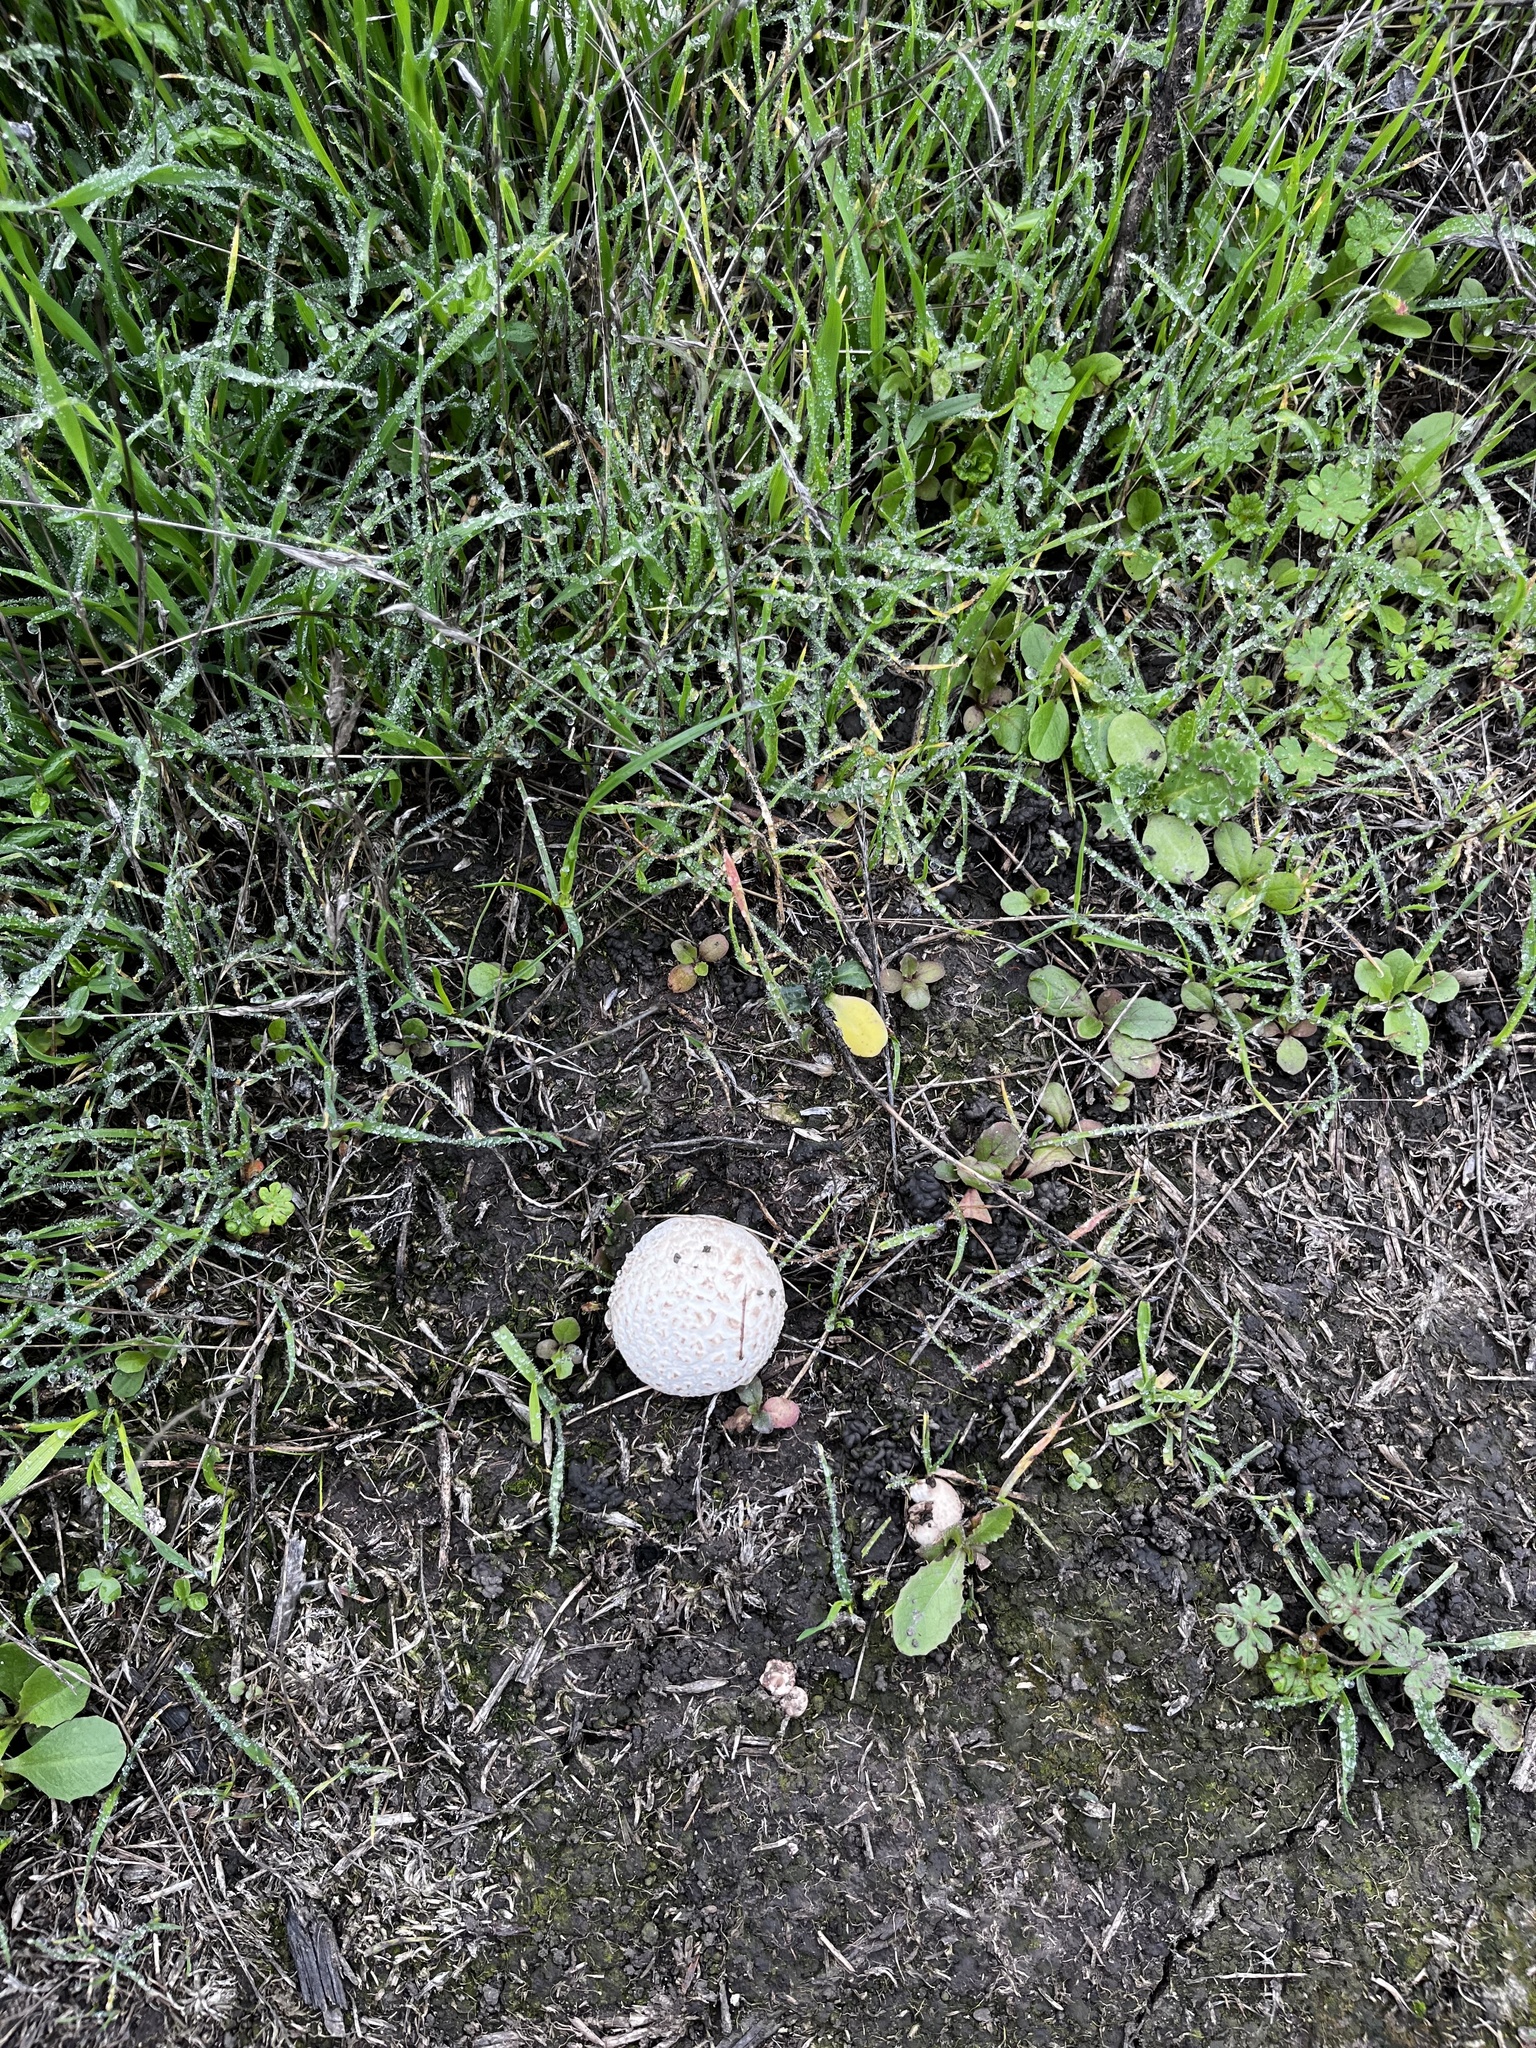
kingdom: Fungi
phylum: Basidiomycota
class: Agaricomycetes
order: Agaricales
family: Lycoperdaceae
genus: Bovista
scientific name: Bovista plumbea
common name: Grey puffball
